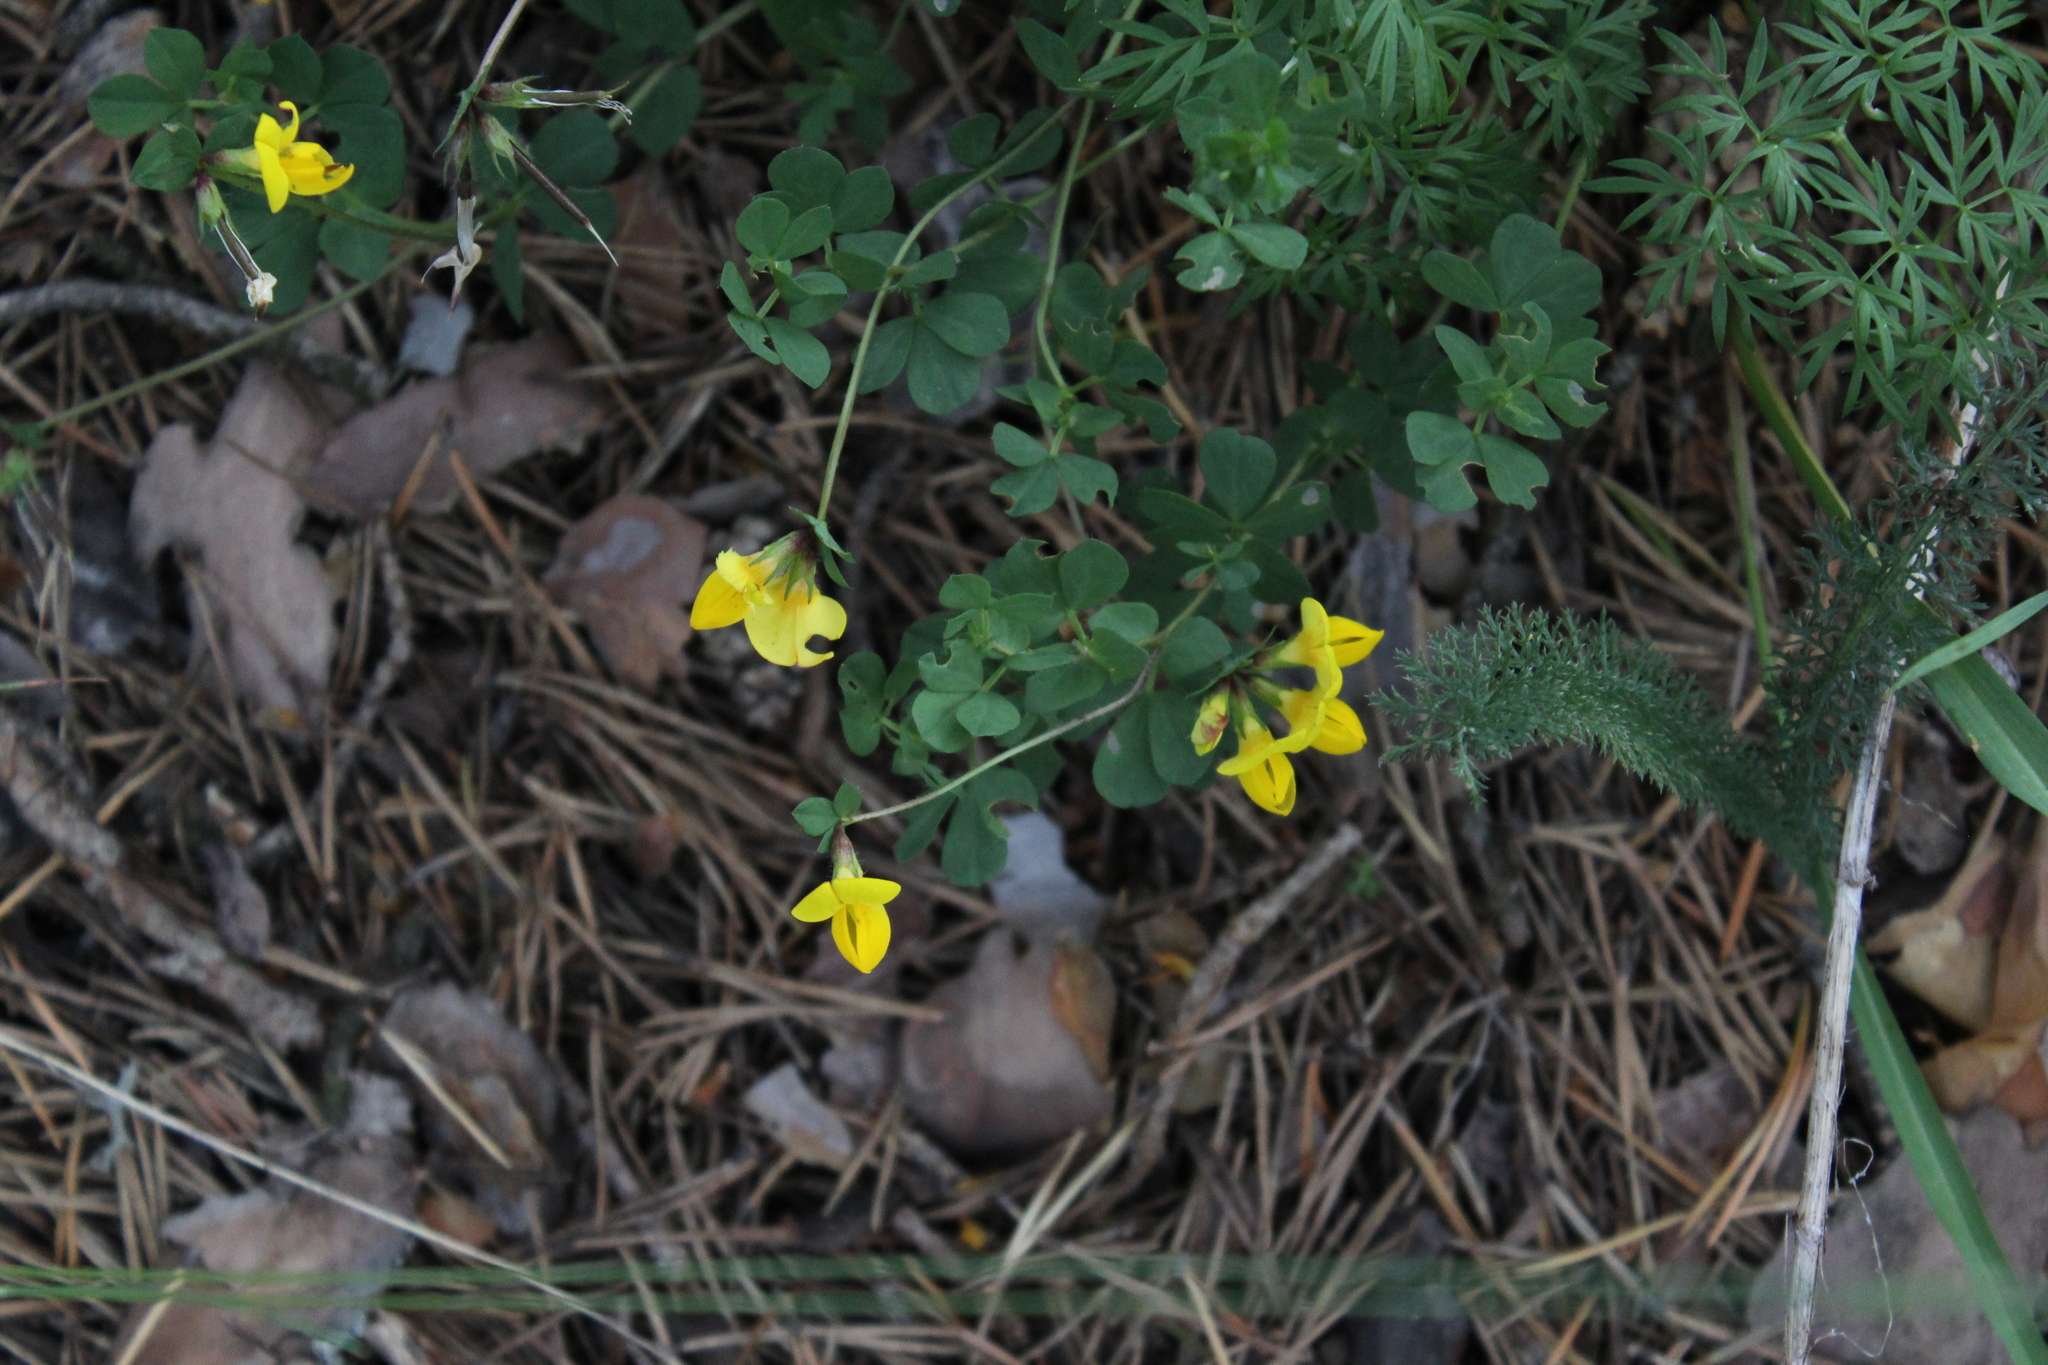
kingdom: Plantae
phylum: Tracheophyta
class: Magnoliopsida
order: Fabales
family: Fabaceae
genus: Lotus
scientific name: Lotus corniculatus
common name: Common bird's-foot-trefoil
